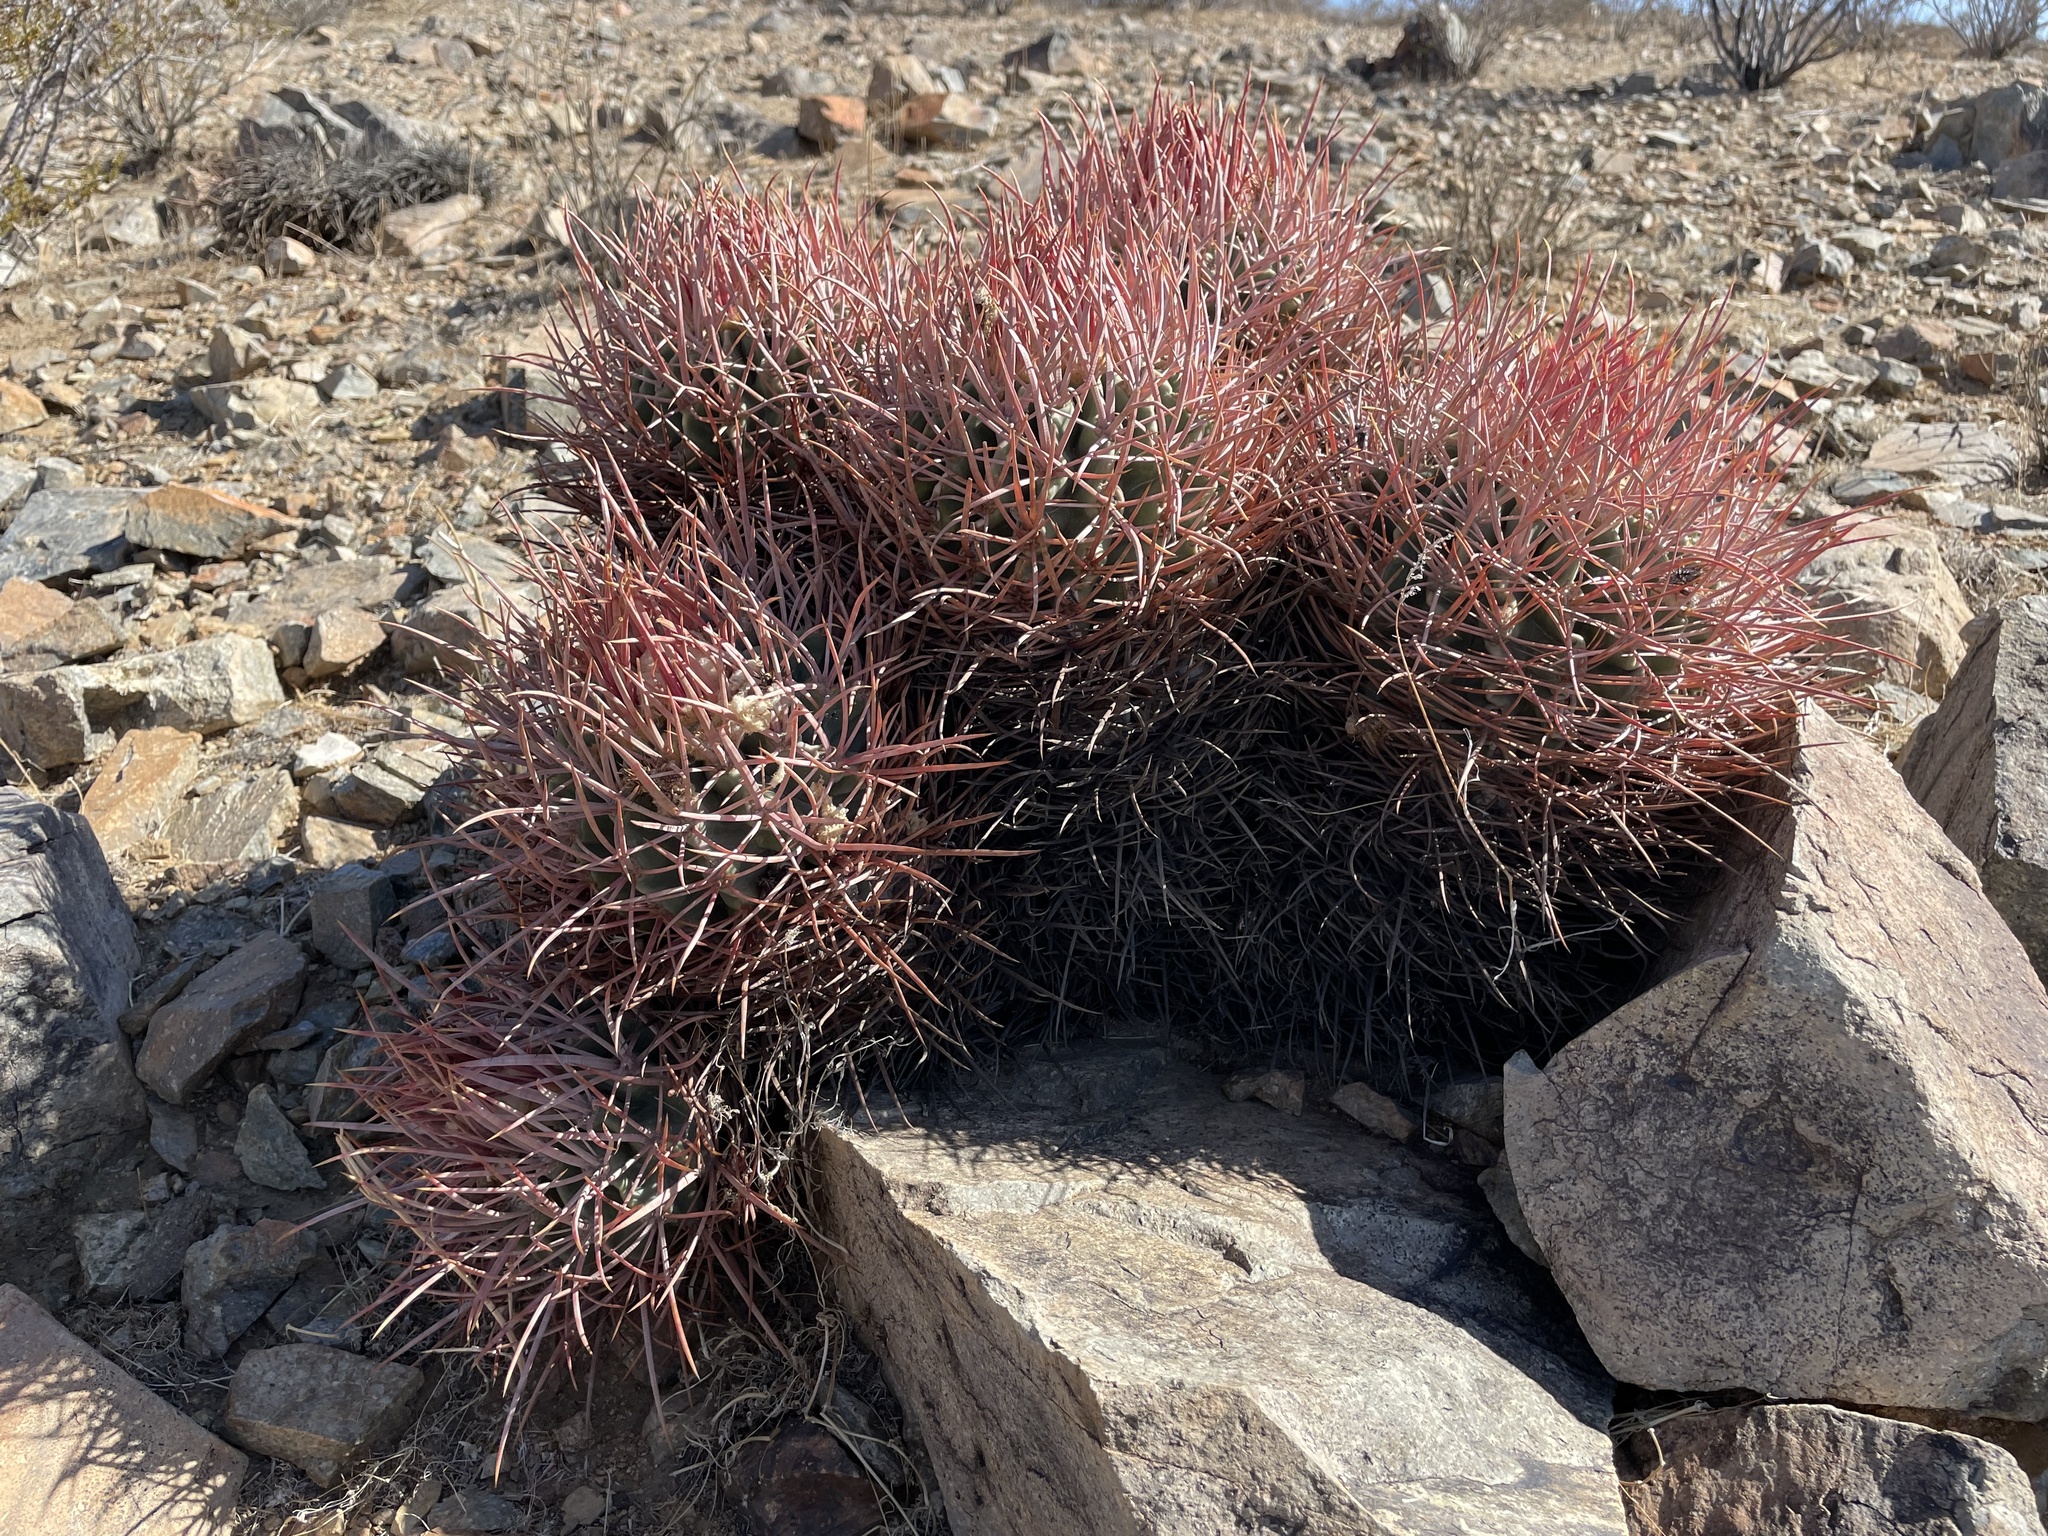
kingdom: Plantae
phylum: Tracheophyta
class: Magnoliopsida
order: Caryophyllales
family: Cactaceae
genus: Echinocactus
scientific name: Echinocactus polycephalus
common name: Cottontop cactus
